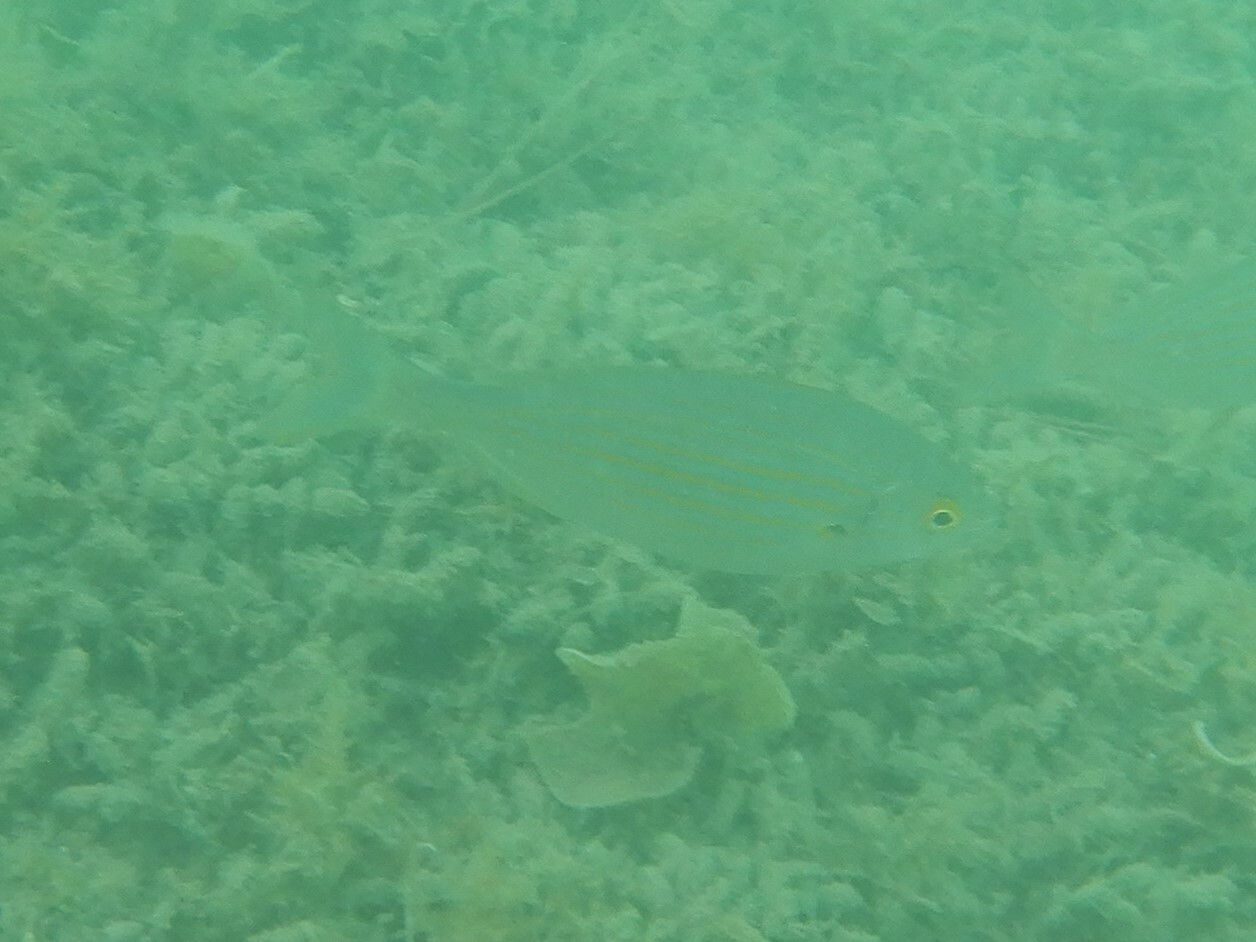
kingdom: Animalia
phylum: Chordata
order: Perciformes
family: Sparidae
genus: Sarpa
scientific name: Sarpa salpa
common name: Salema
